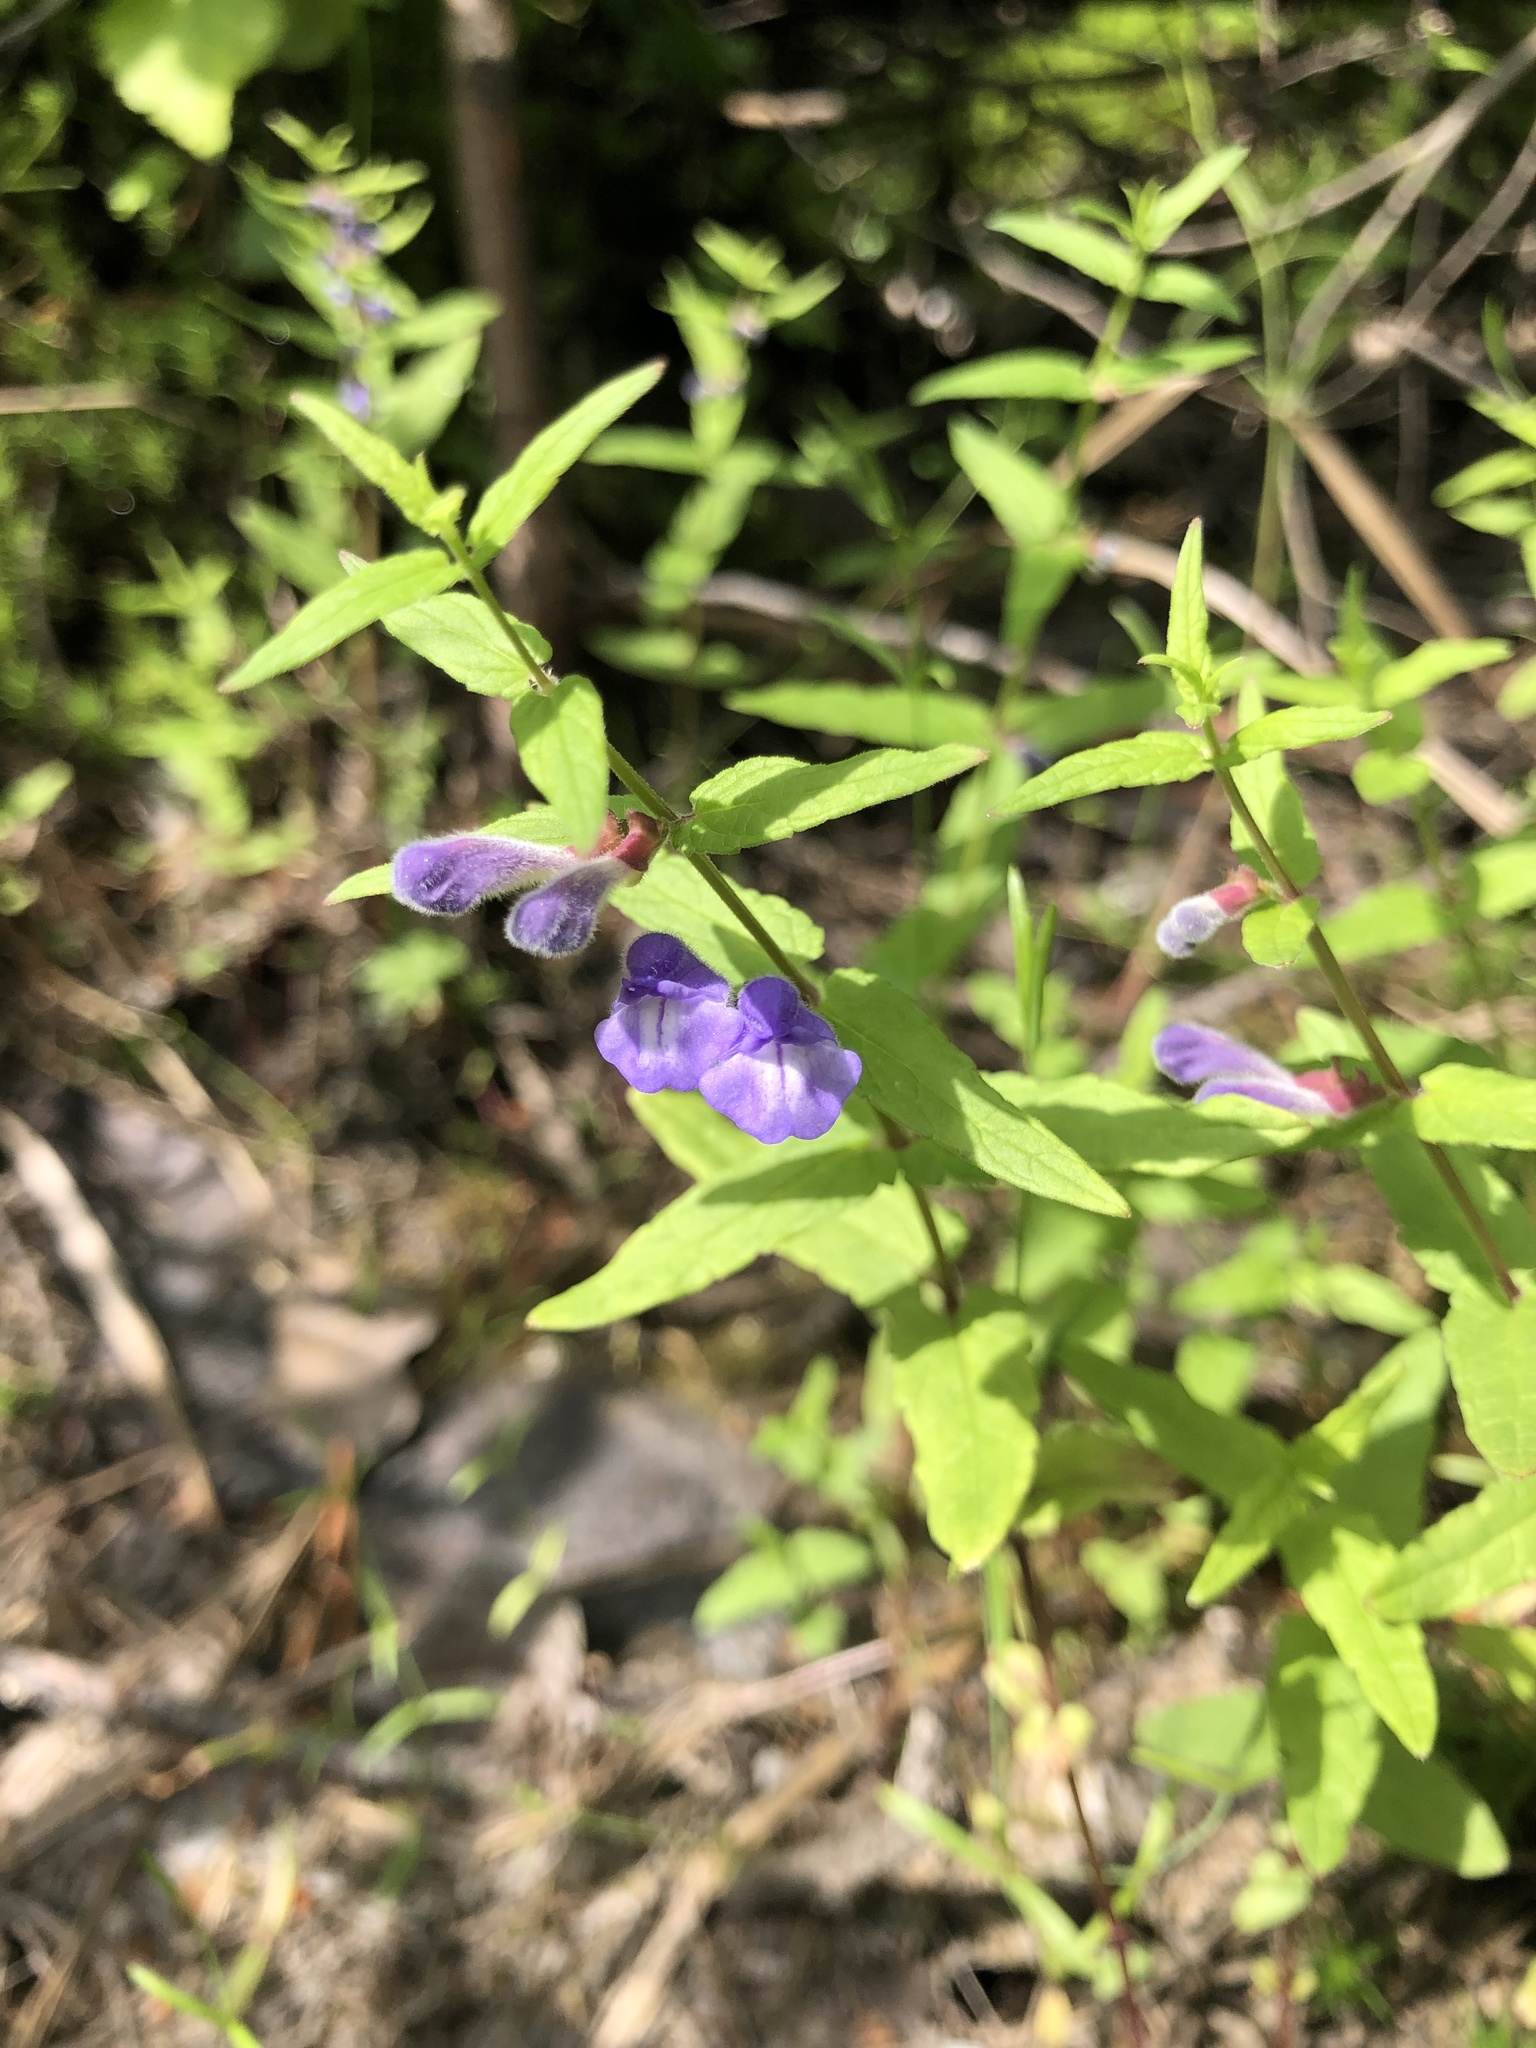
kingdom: Plantae
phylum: Tracheophyta
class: Magnoliopsida
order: Lamiales
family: Lamiaceae
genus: Scutellaria
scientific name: Scutellaria galericulata
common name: Skullcap
